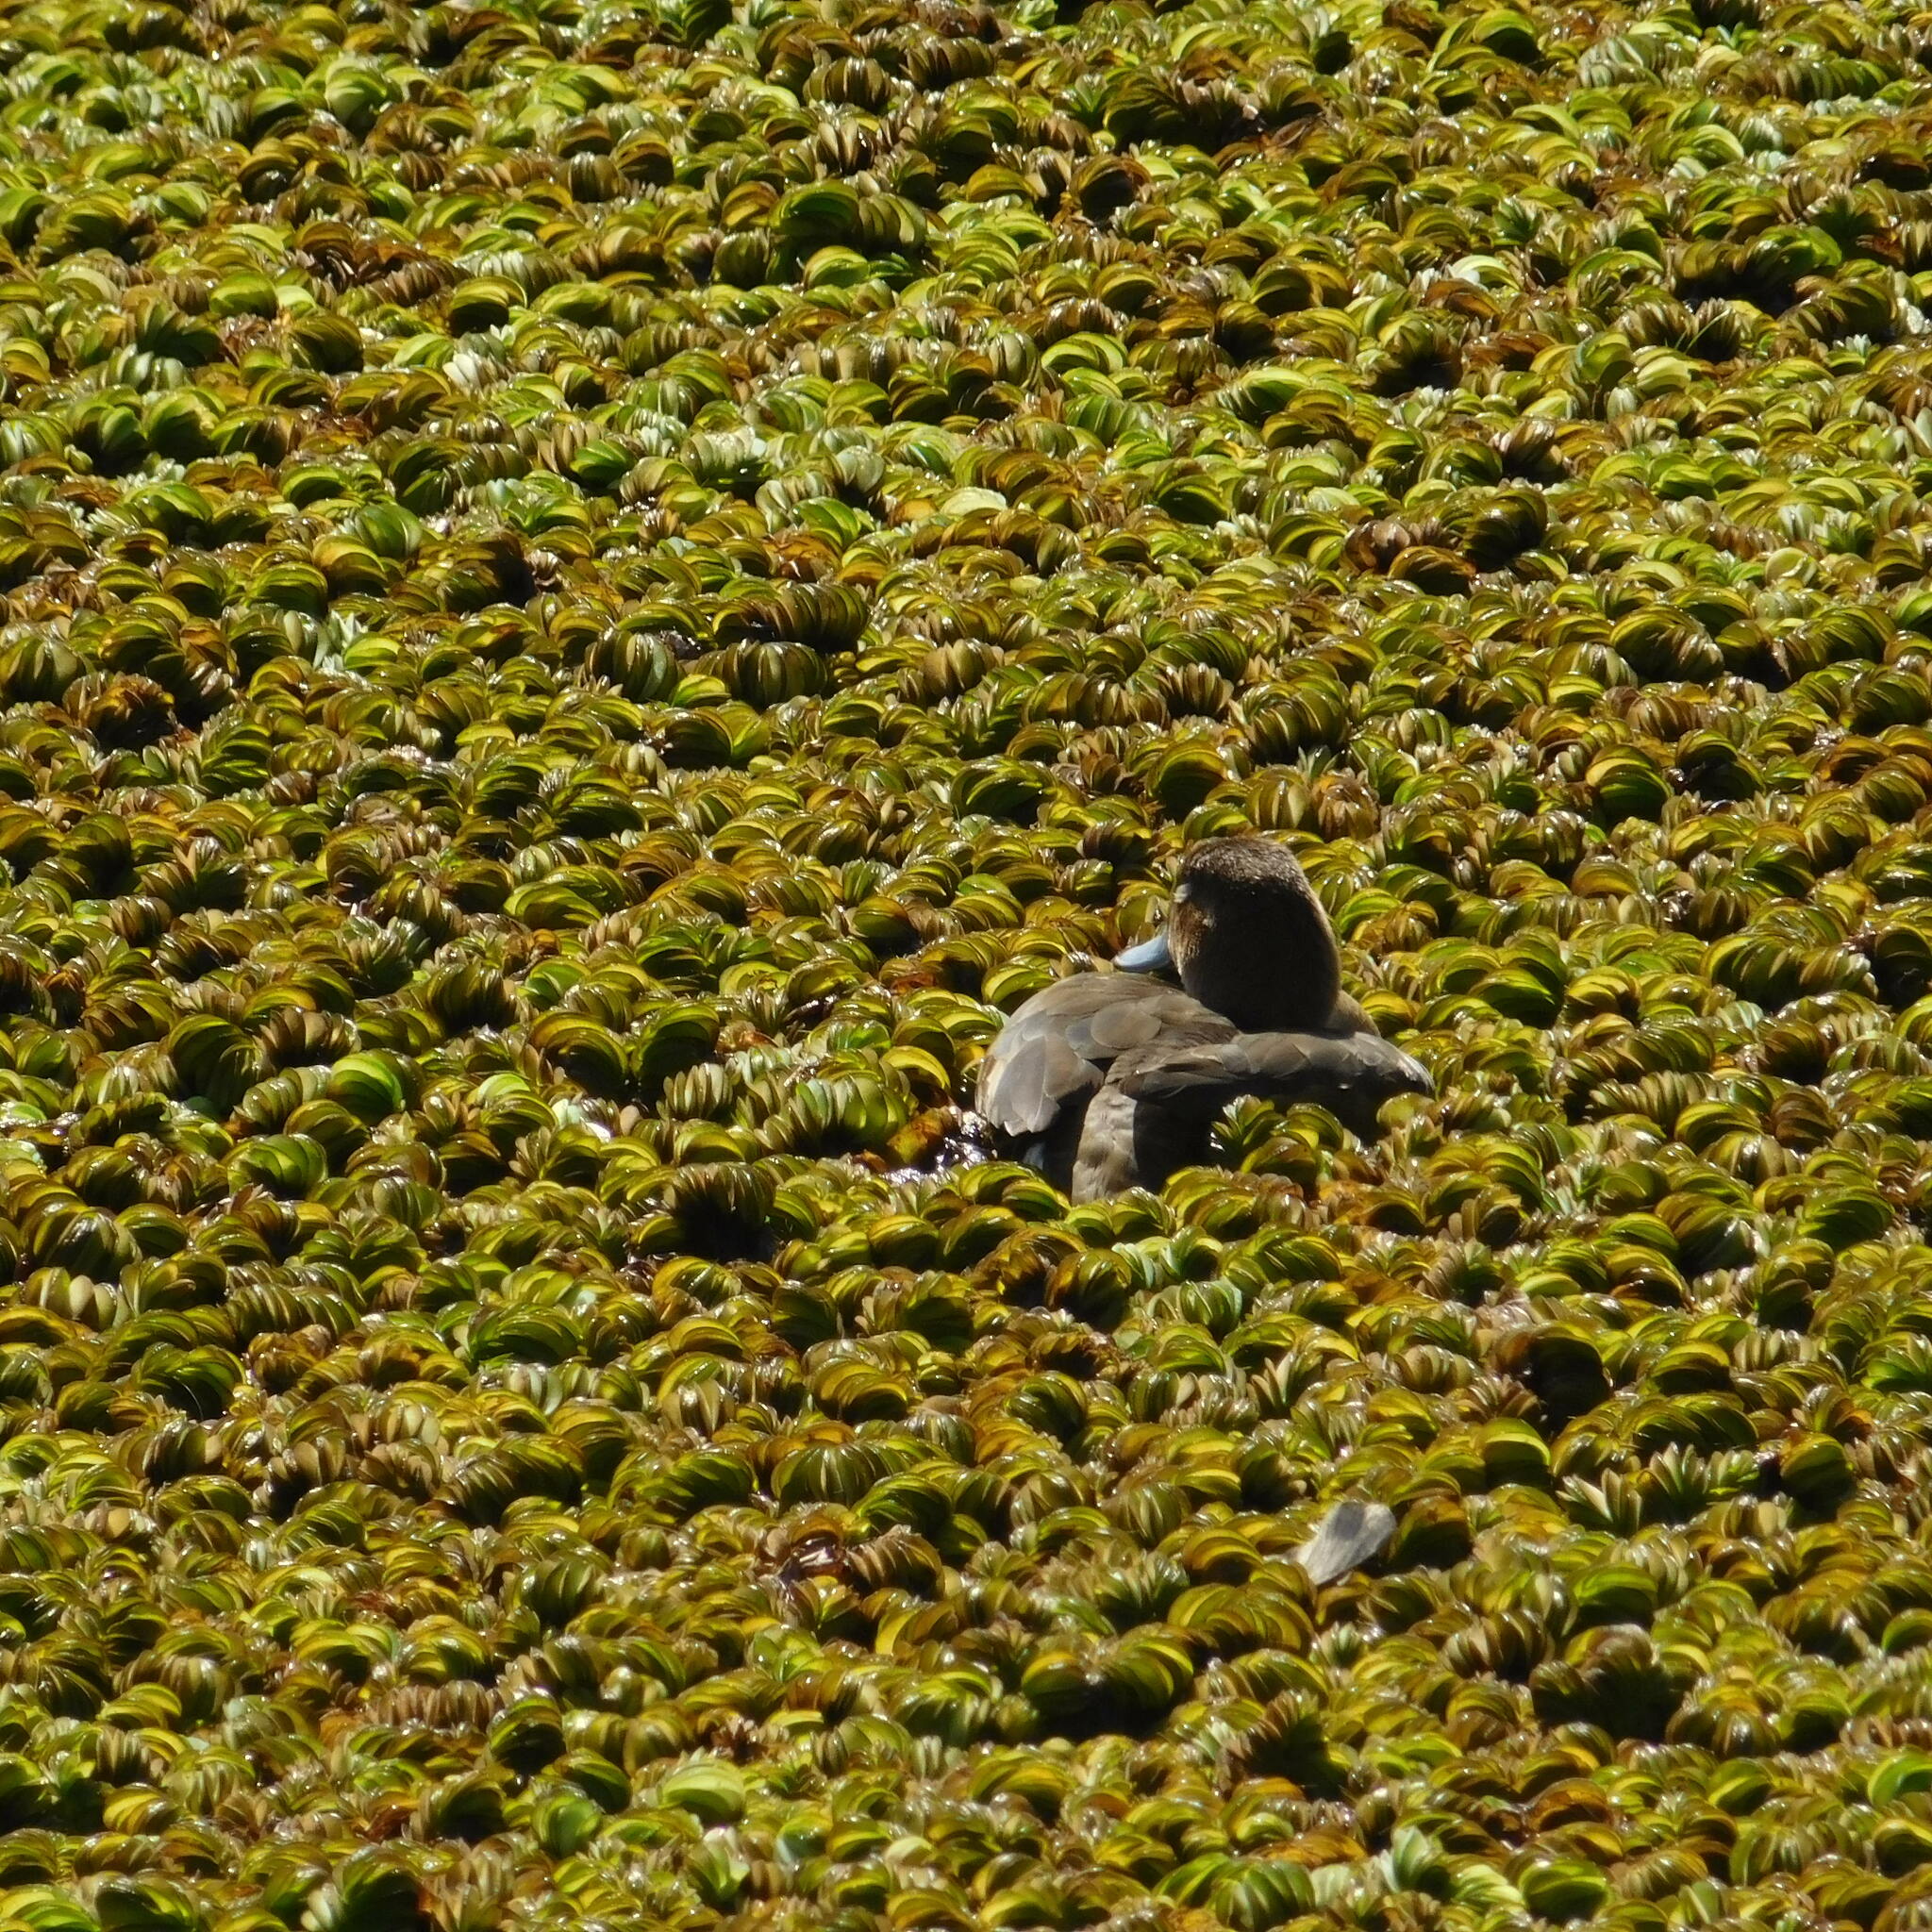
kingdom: Animalia
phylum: Chordata
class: Aves
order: Anseriformes
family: Anatidae
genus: Netta
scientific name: Netta peposaca
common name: Rosy-billed pochard
